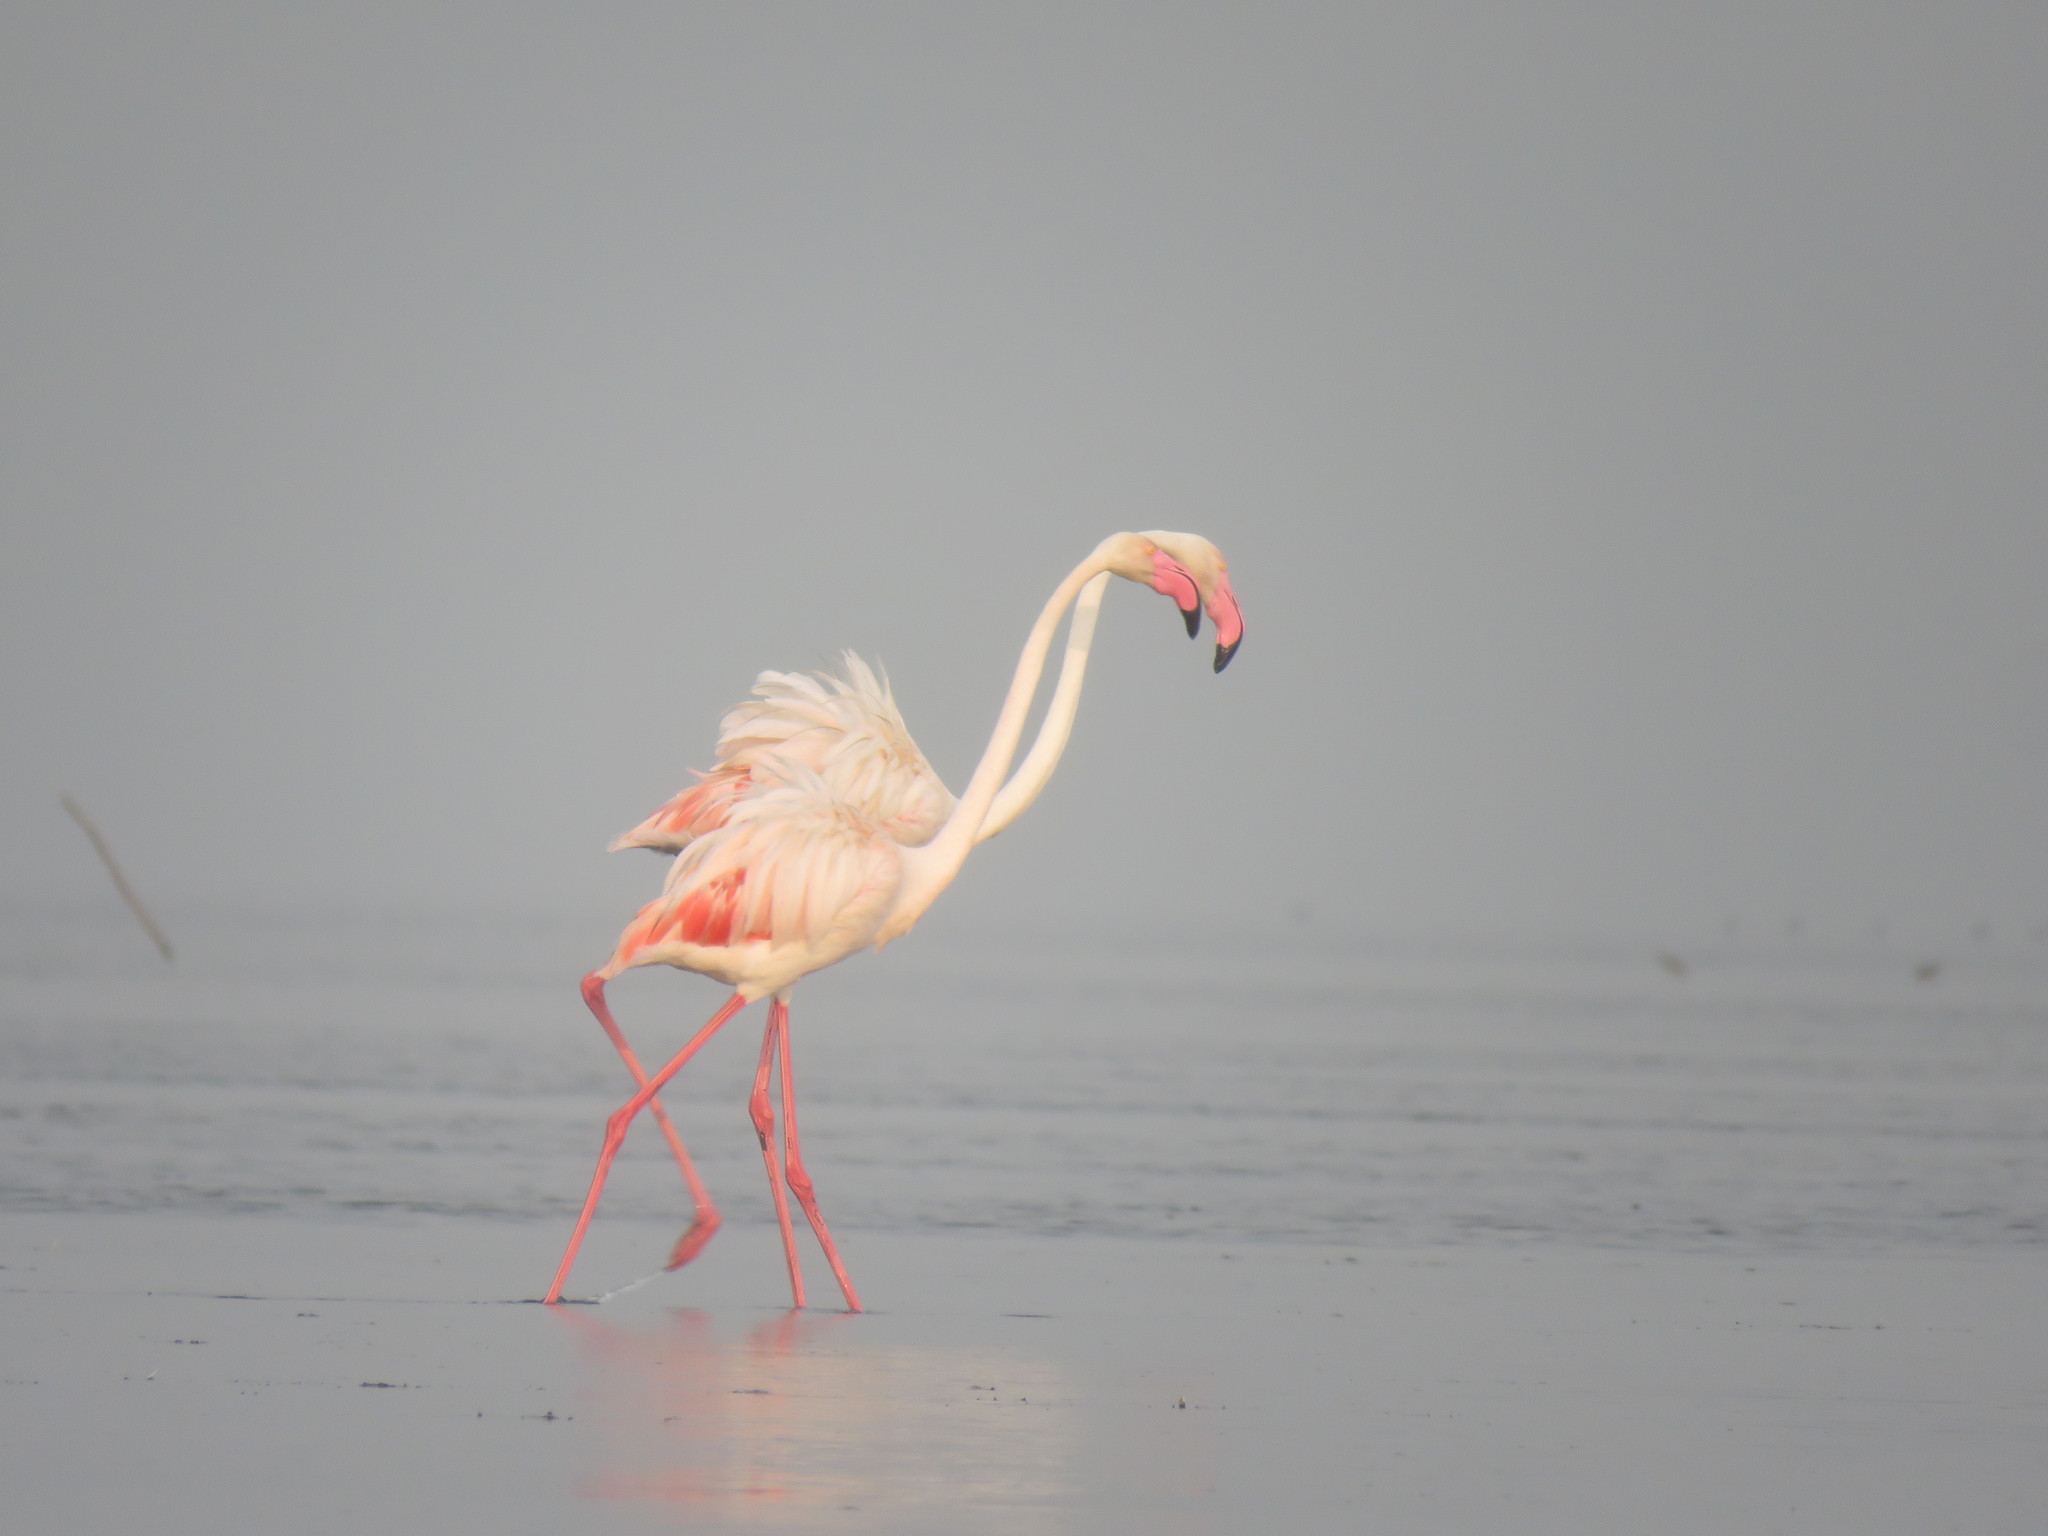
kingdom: Animalia
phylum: Chordata
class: Aves
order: Phoenicopteriformes
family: Phoenicopteridae
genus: Phoenicopterus
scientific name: Phoenicopterus roseus
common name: Greater flamingo
